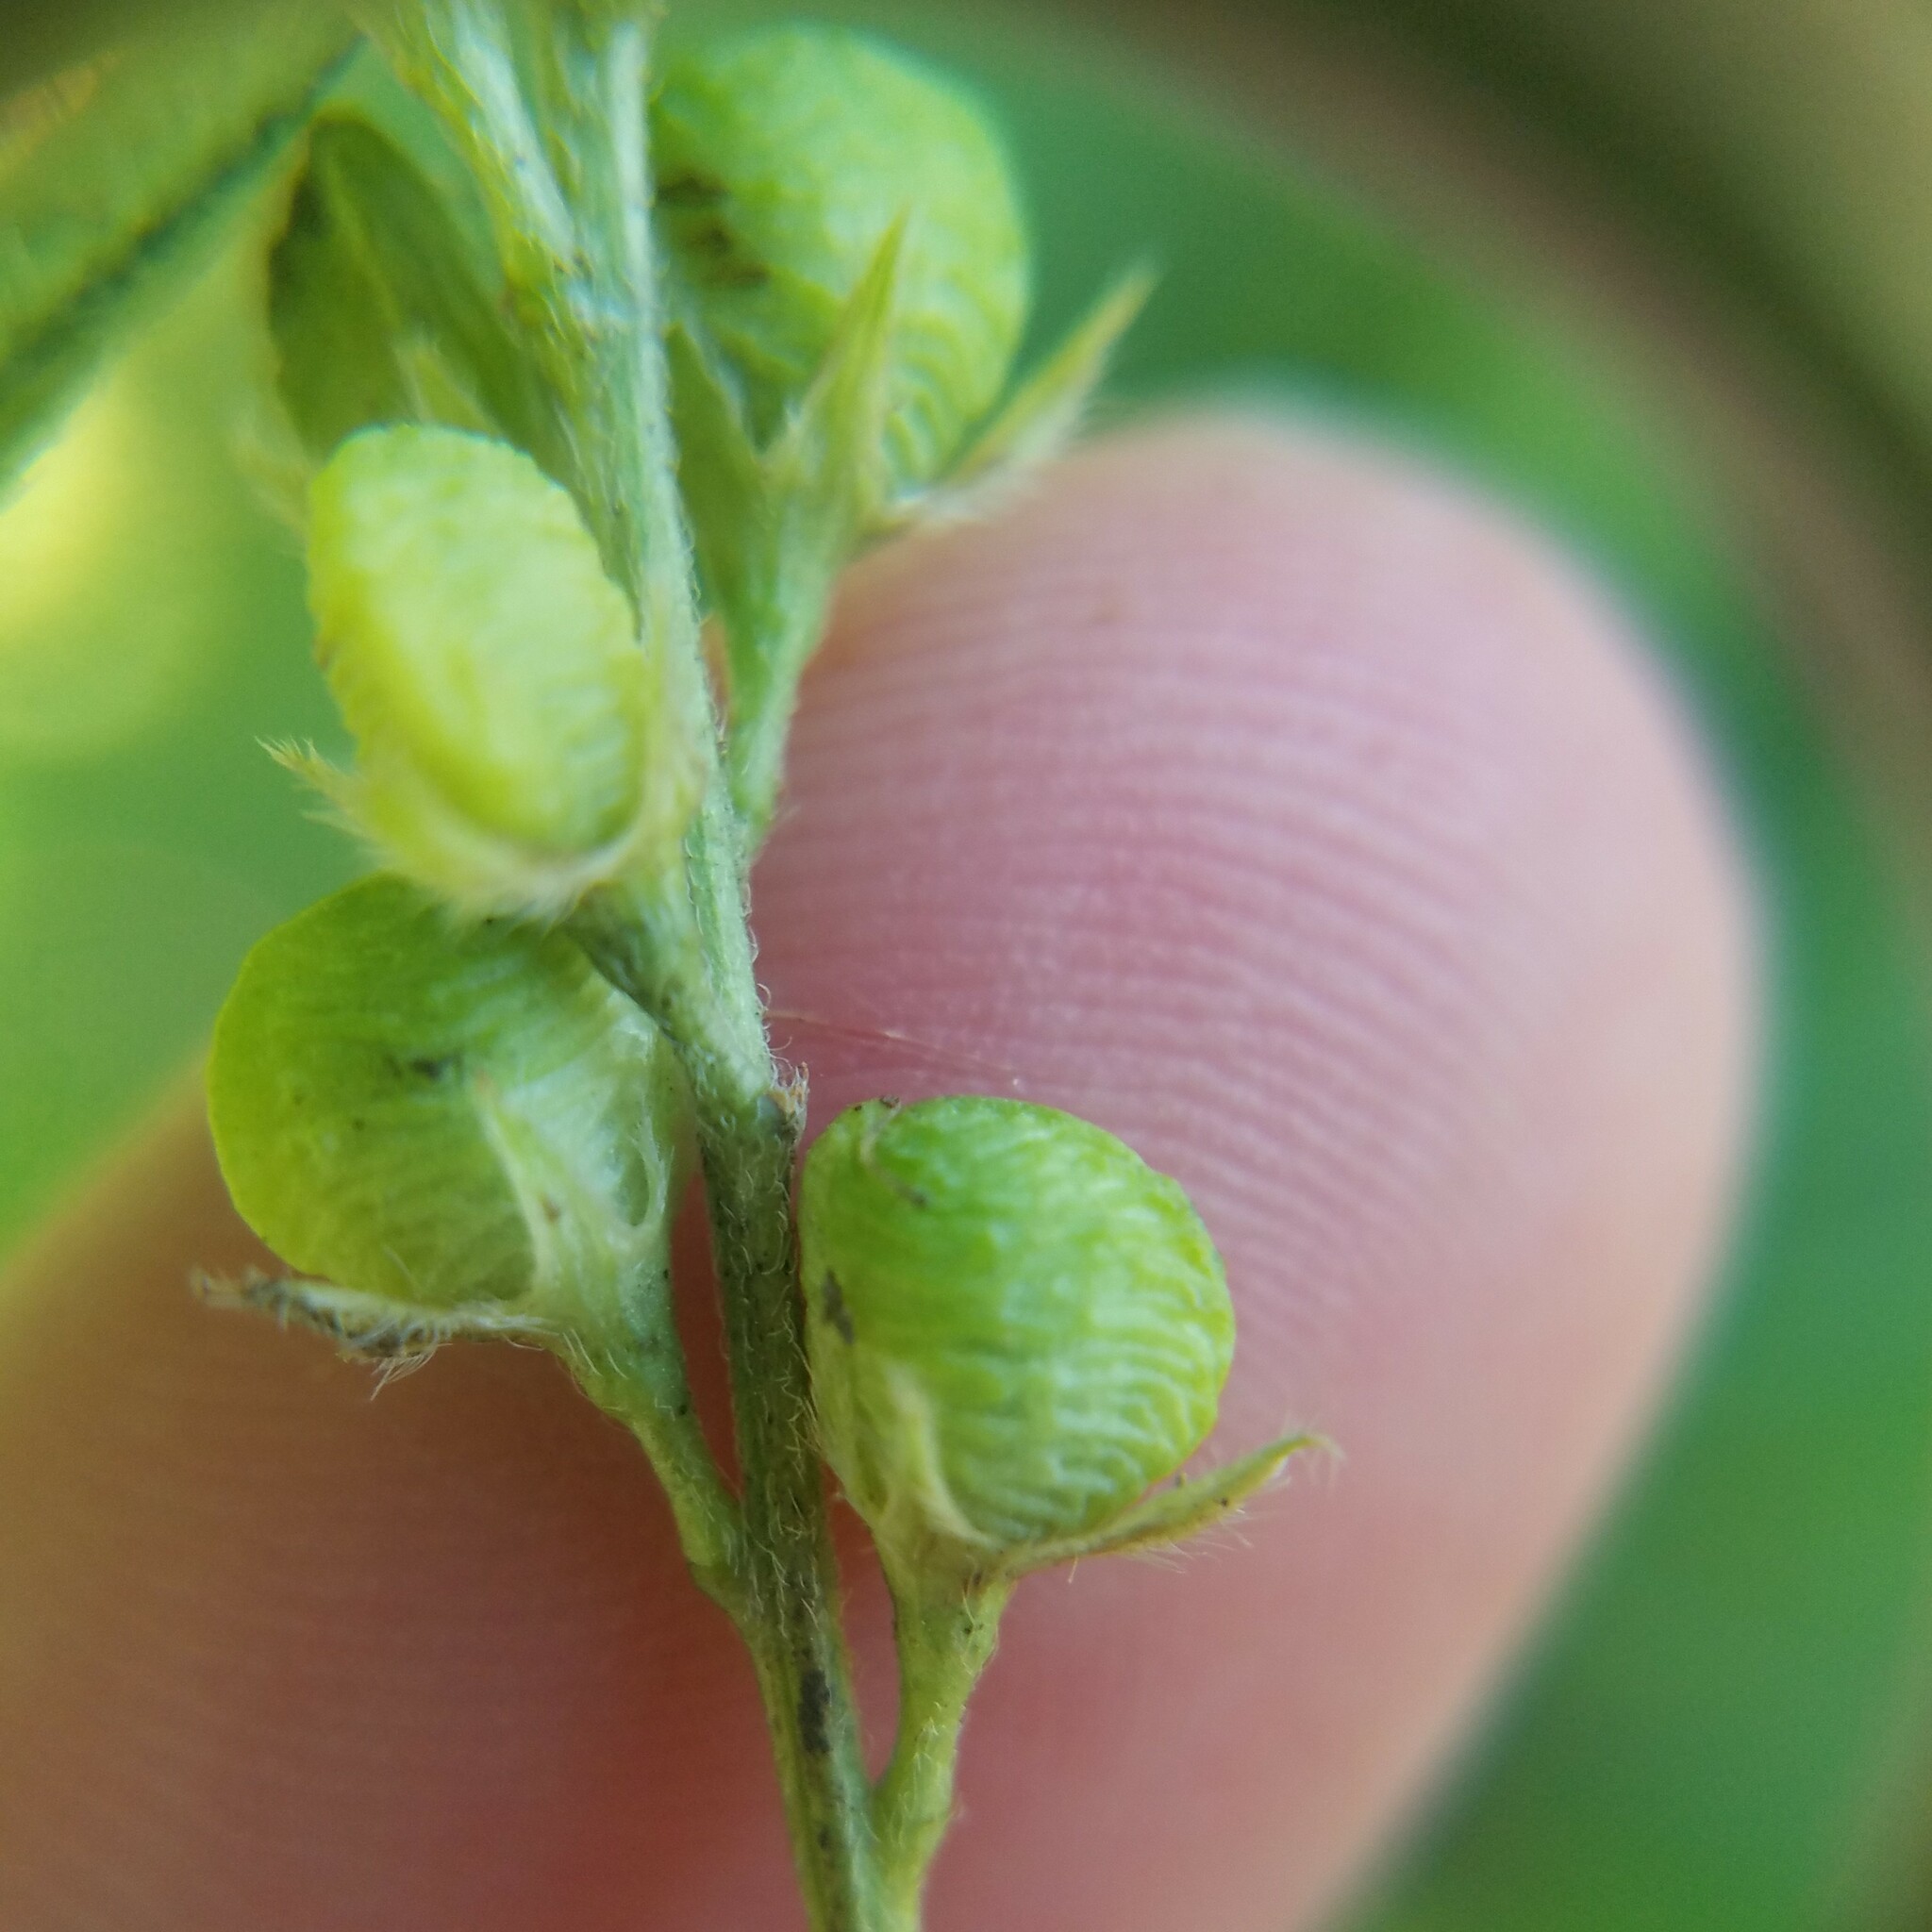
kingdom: Plantae
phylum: Tracheophyta
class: Magnoliopsida
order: Fabales
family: Fabaceae
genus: Orbexilum
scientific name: Orbexilum pedunculatum
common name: Sampson's snakeroot
